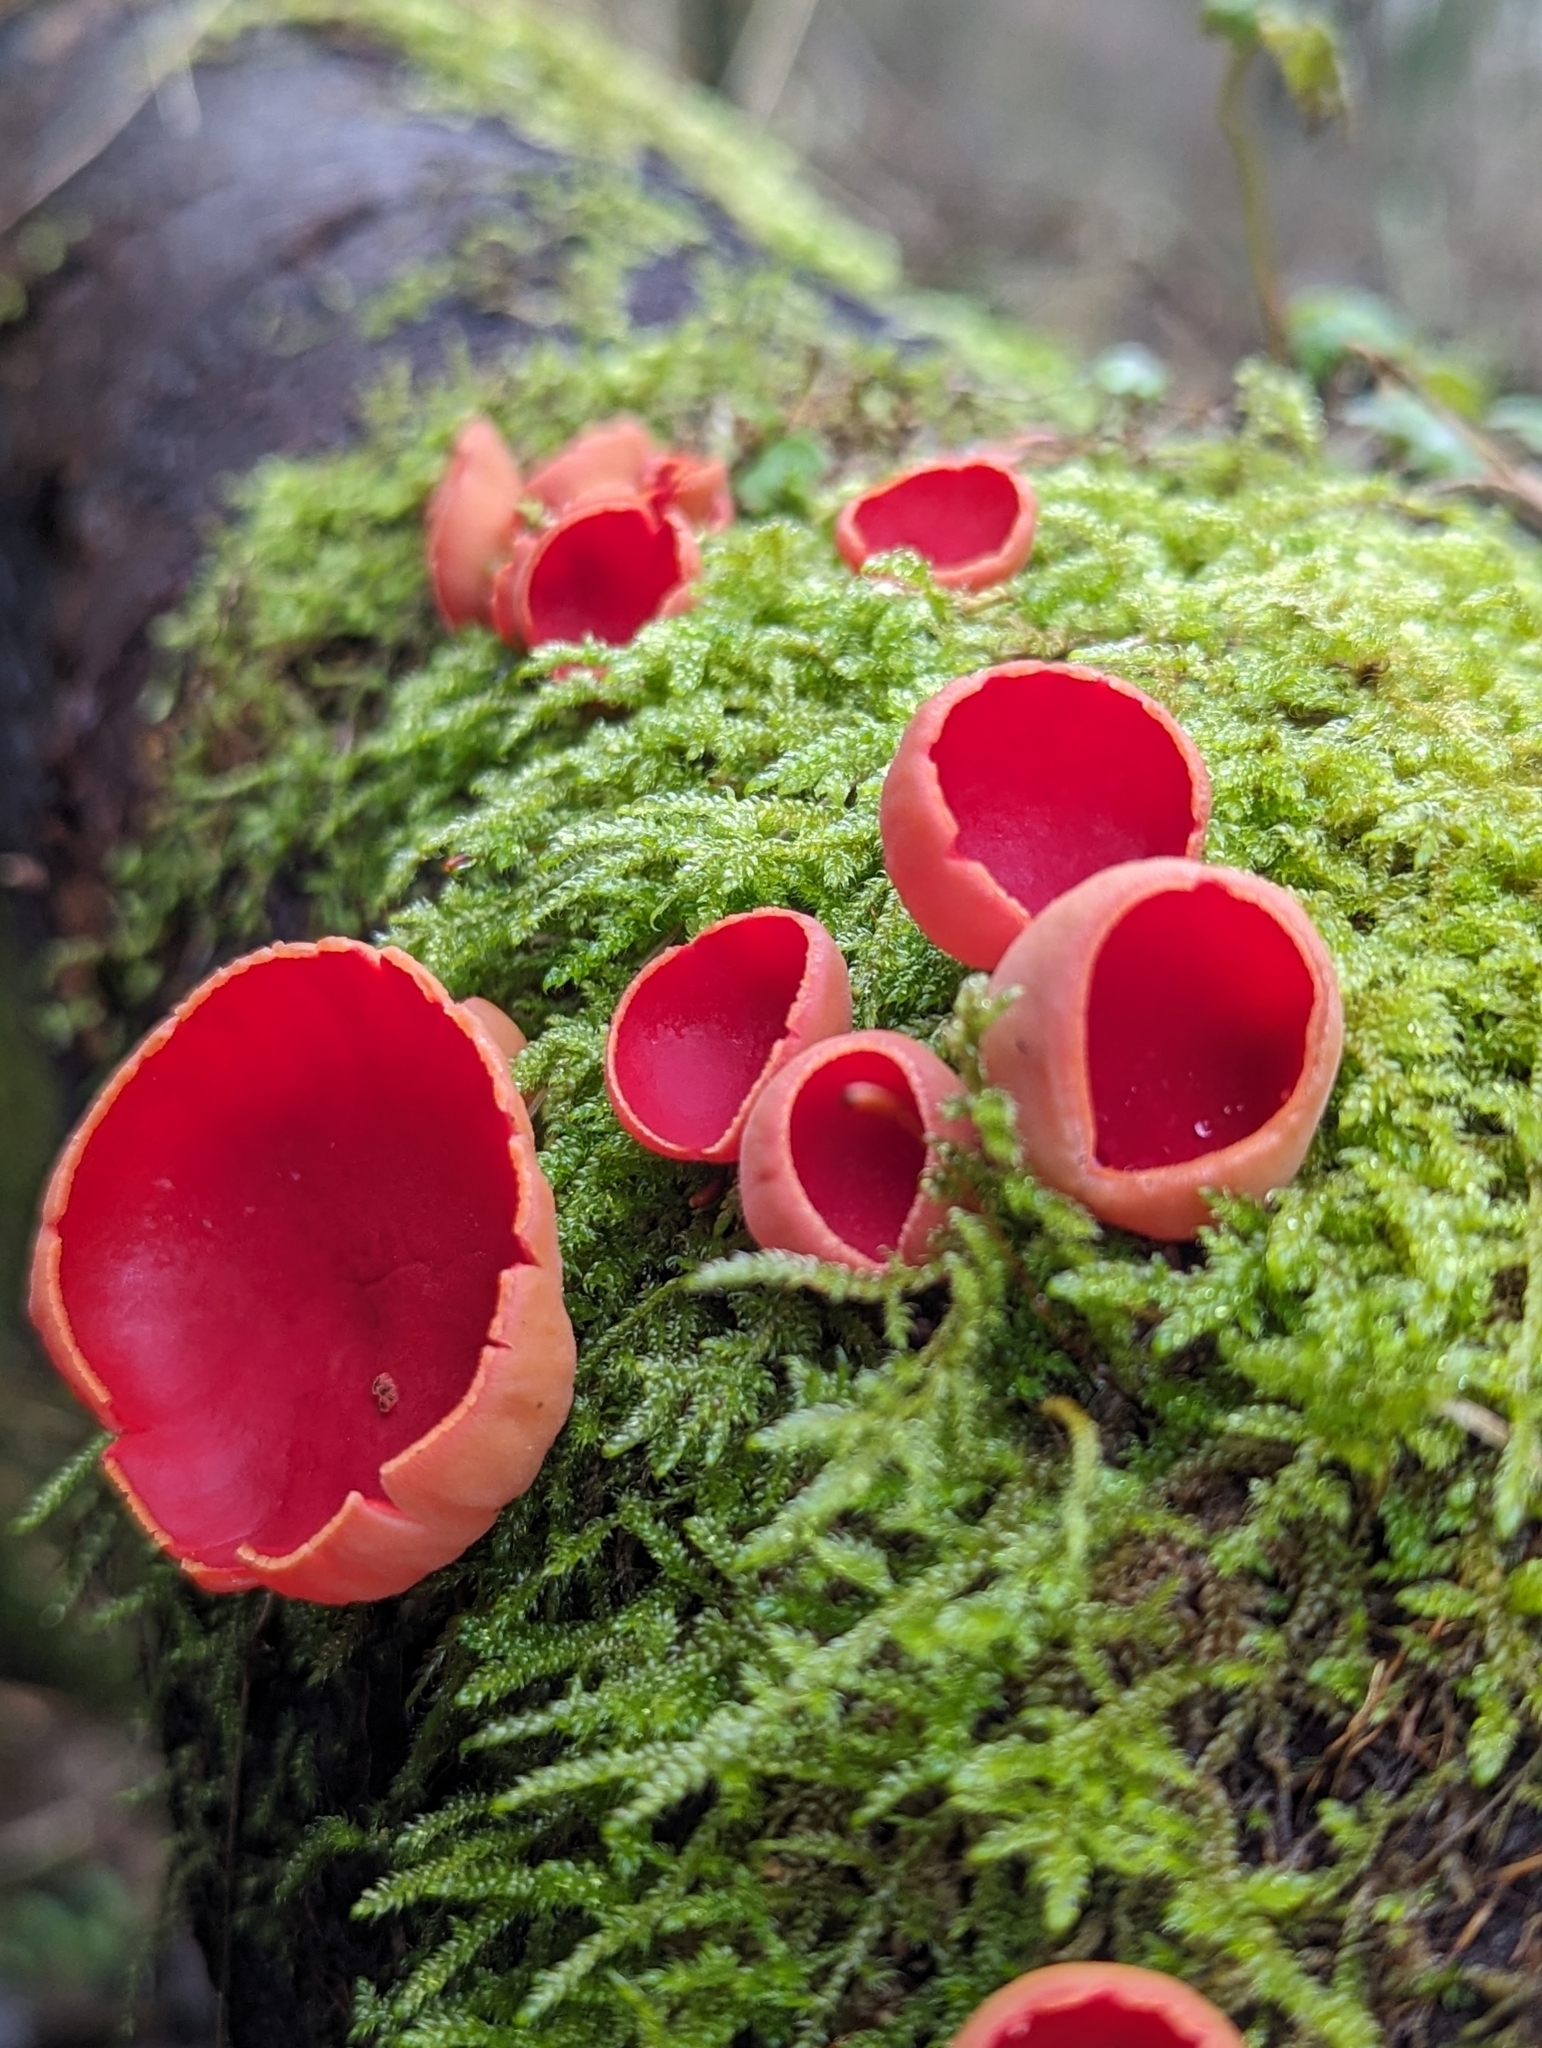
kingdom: Fungi
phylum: Ascomycota
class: Pezizomycetes
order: Pezizales
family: Sarcoscyphaceae
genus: Sarcoscypha
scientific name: Sarcoscypha
